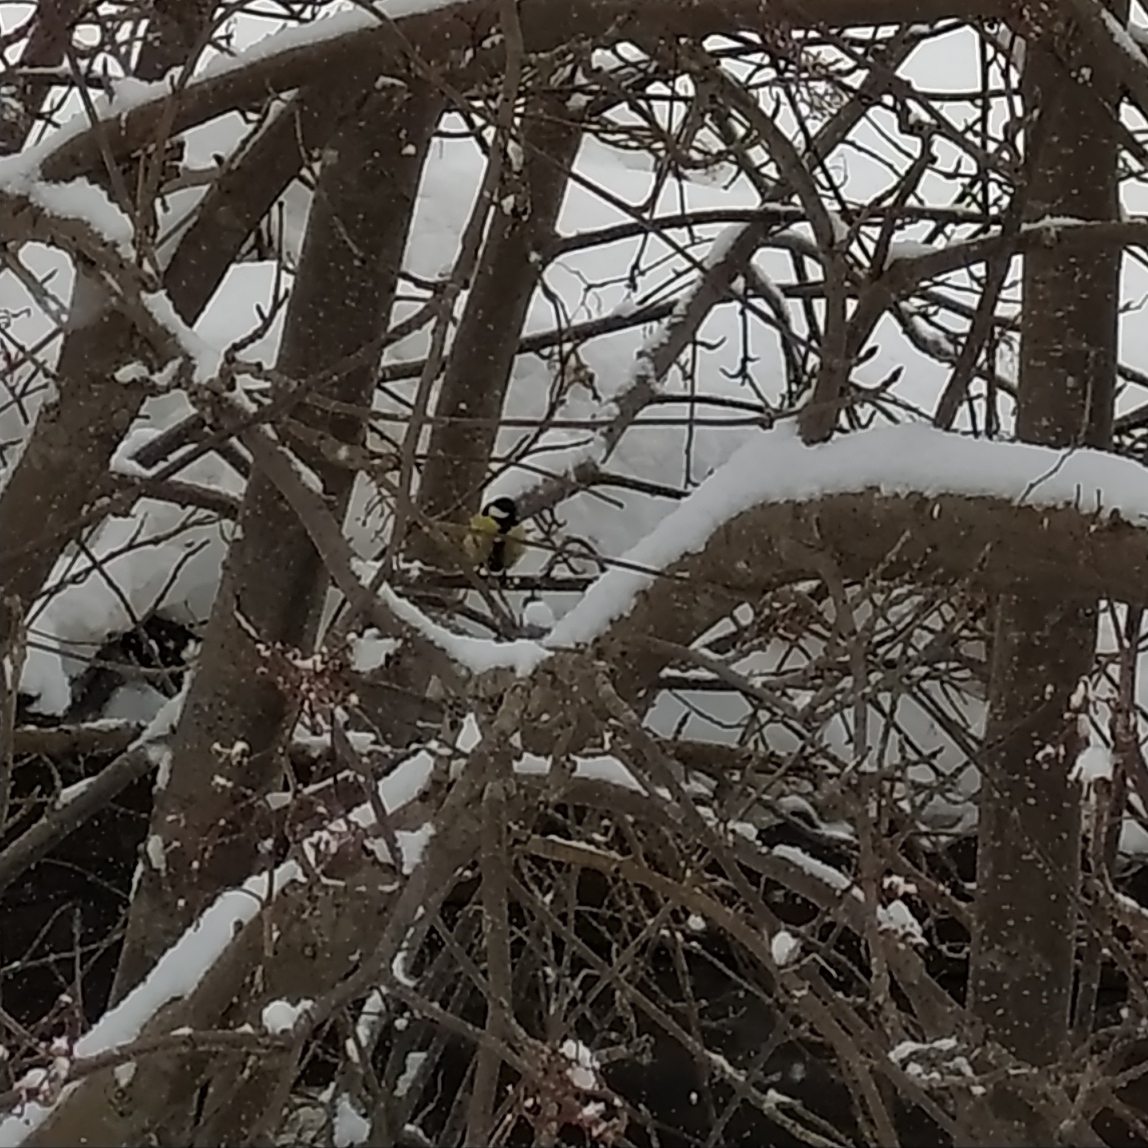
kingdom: Animalia
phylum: Chordata
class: Aves
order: Passeriformes
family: Paridae
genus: Parus
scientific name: Parus major
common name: Great tit
